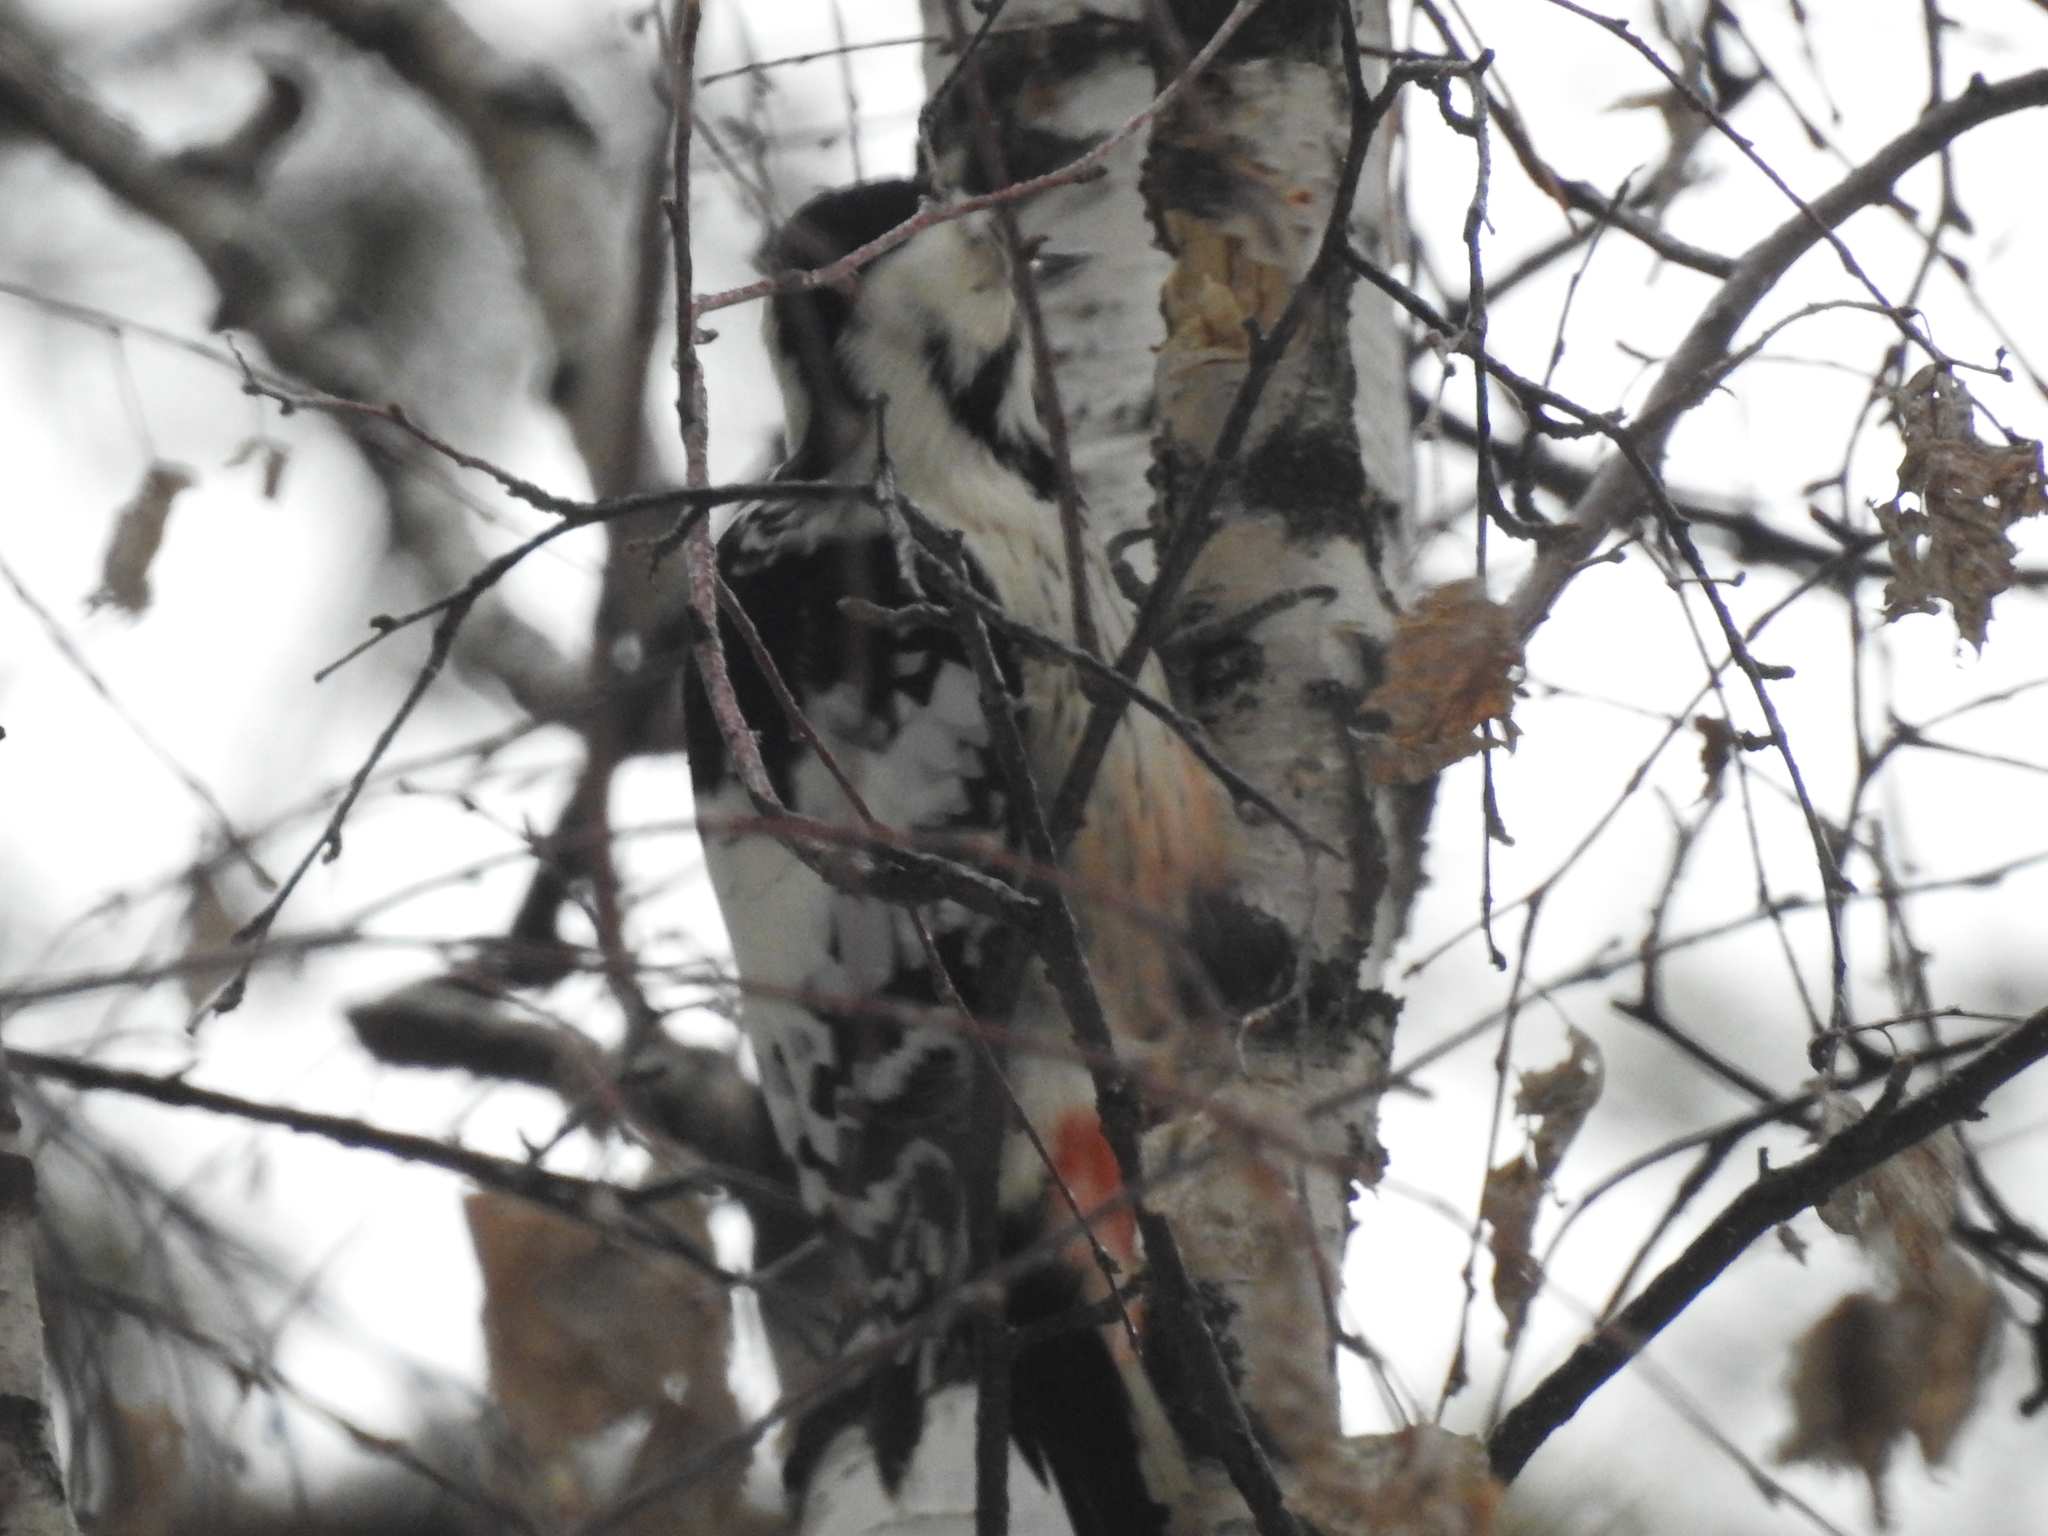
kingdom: Animalia
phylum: Chordata
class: Aves
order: Piciformes
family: Picidae
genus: Dendrocopos
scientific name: Dendrocopos leucotos
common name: White-backed woodpecker
